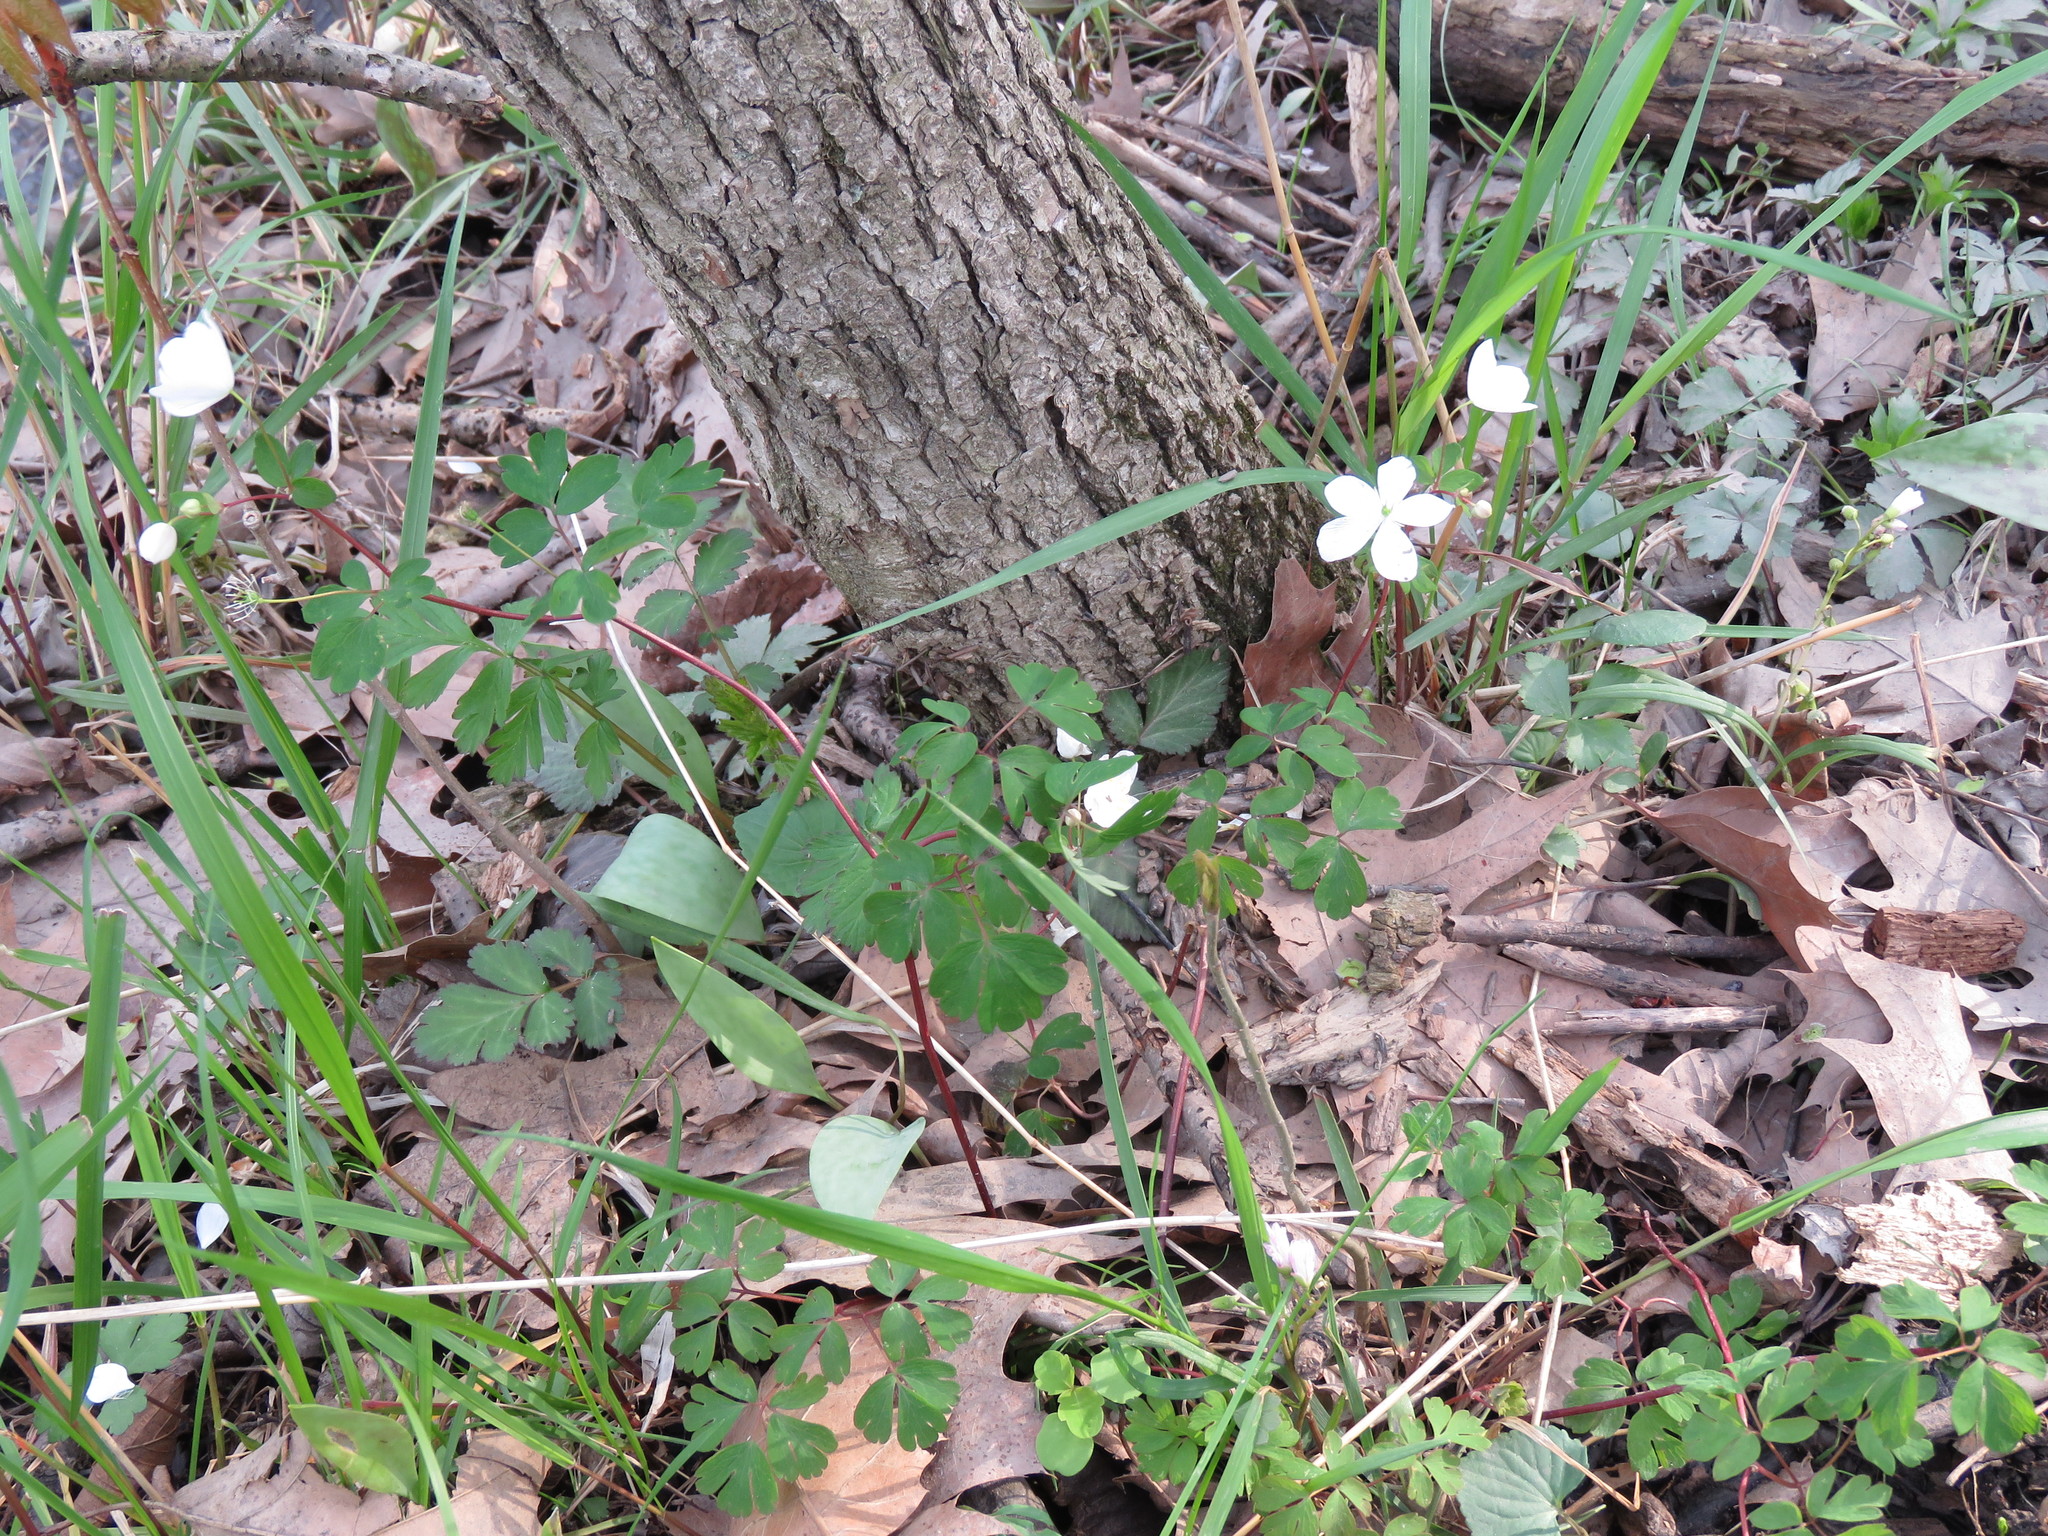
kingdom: Plantae
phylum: Tracheophyta
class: Magnoliopsida
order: Ranunculales
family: Ranunculaceae
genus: Enemion
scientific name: Enemion biternatum
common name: Eastern false rue-anemone
